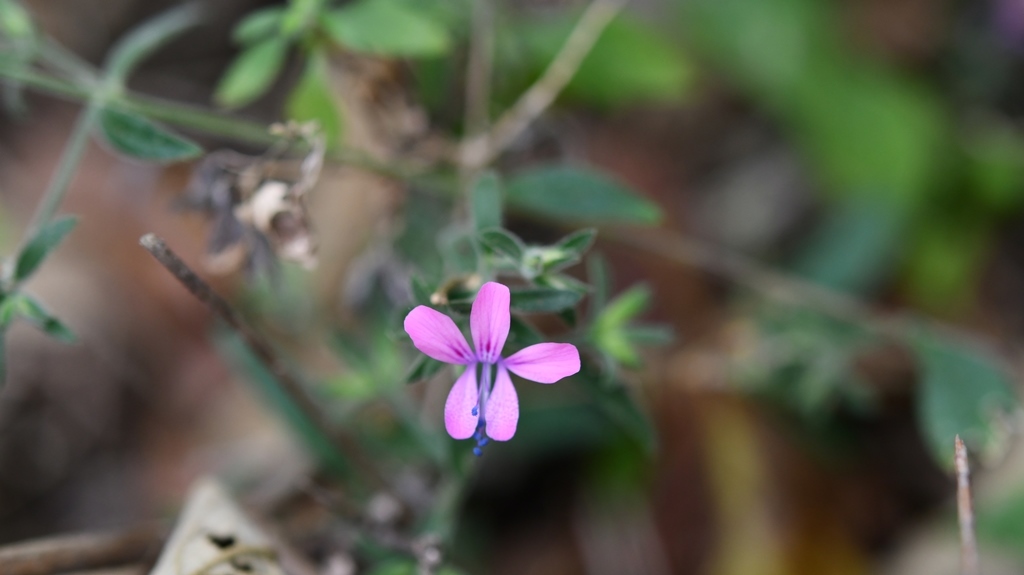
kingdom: Plantae
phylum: Tracheophyta
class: Magnoliopsida
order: Ericales
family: Polemoniaceae
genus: Loeselia
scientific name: Loeselia glandulosa
